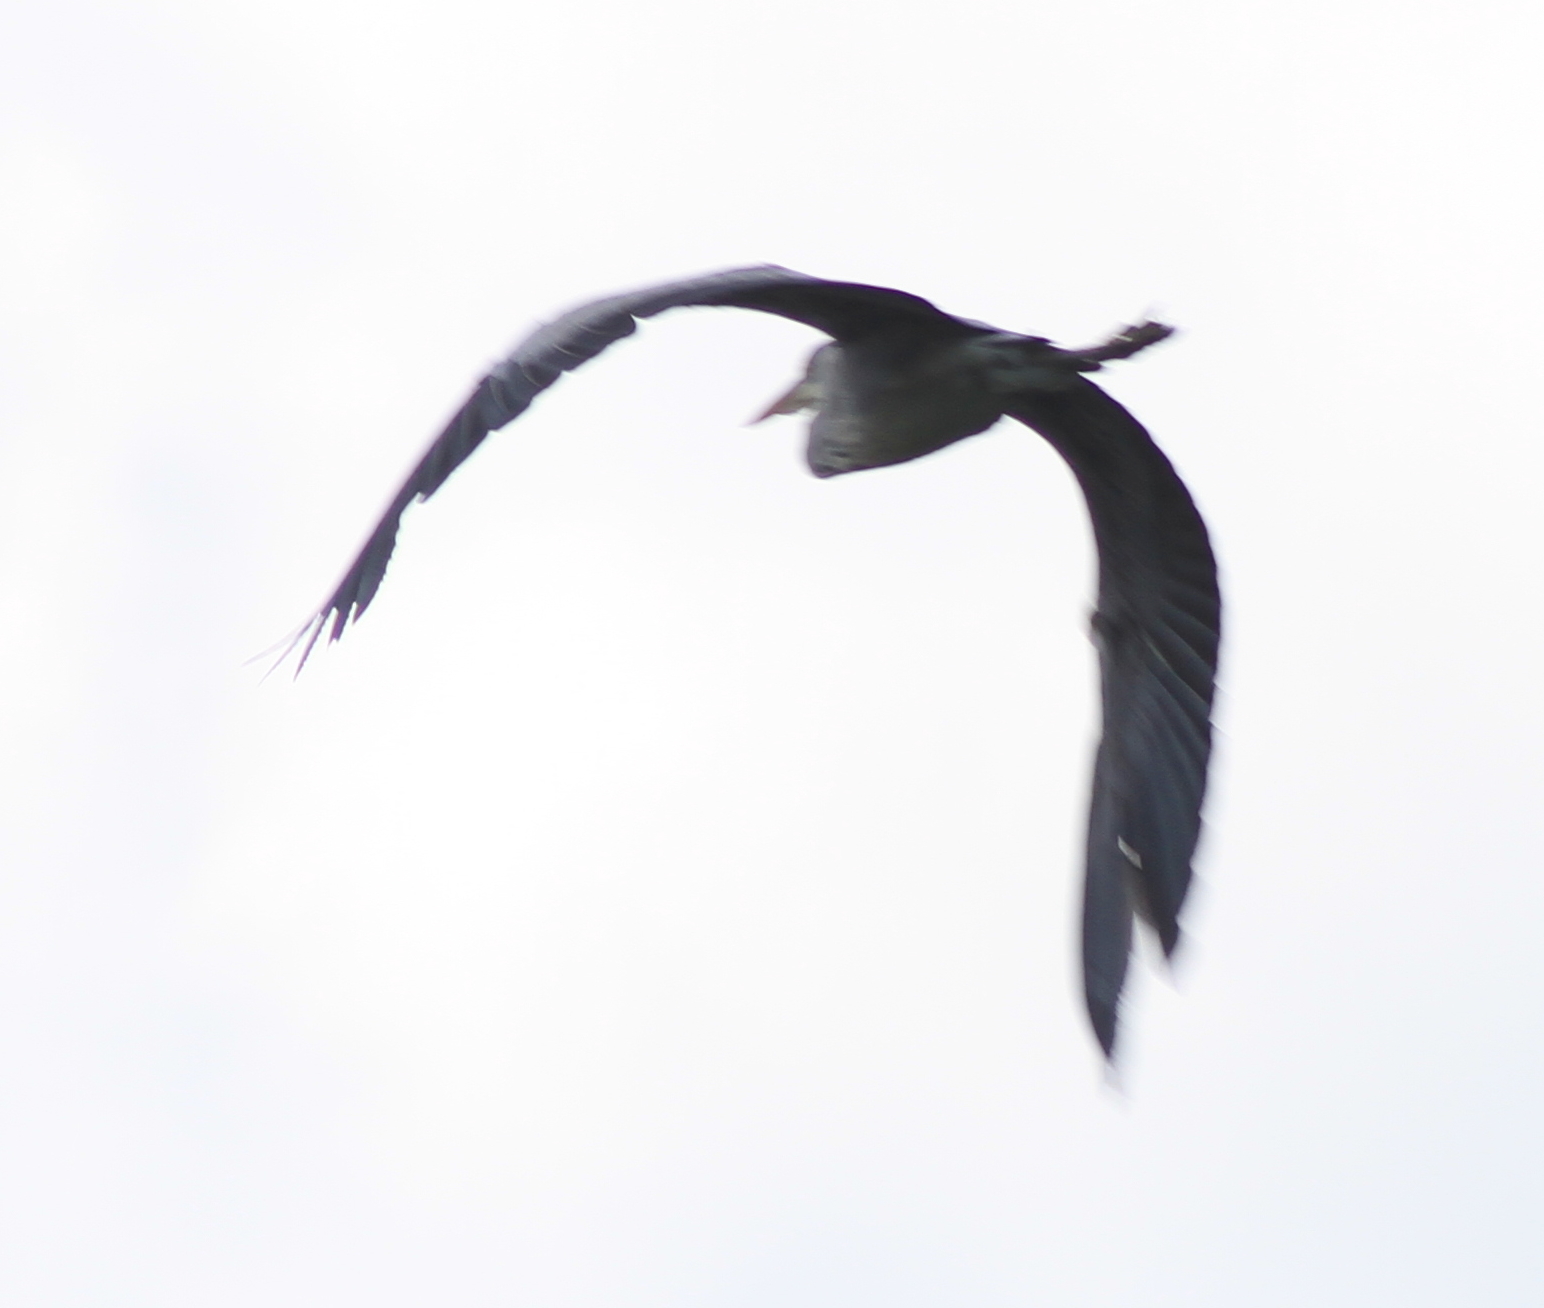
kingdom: Animalia
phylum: Chordata
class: Aves
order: Pelecaniformes
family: Ardeidae
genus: Ardea
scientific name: Ardea cinerea
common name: Grey heron
